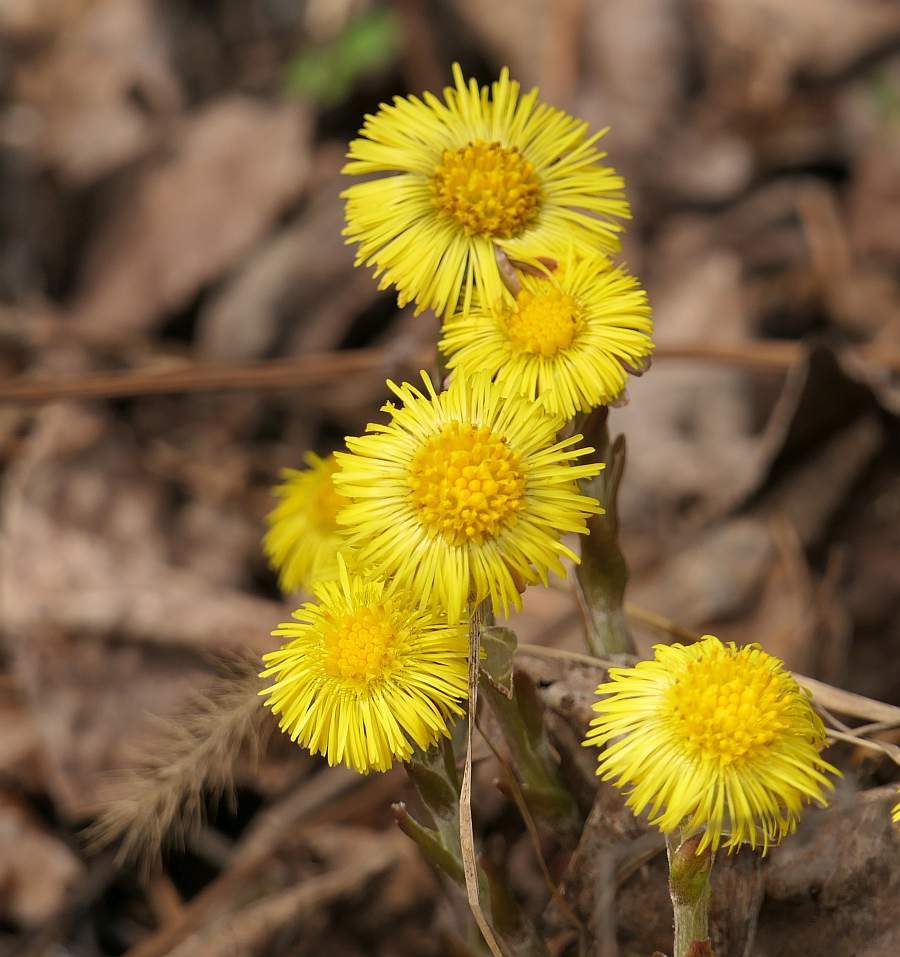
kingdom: Plantae
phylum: Tracheophyta
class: Magnoliopsida
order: Asterales
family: Asteraceae
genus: Tussilago
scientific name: Tussilago farfara
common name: Coltsfoot
